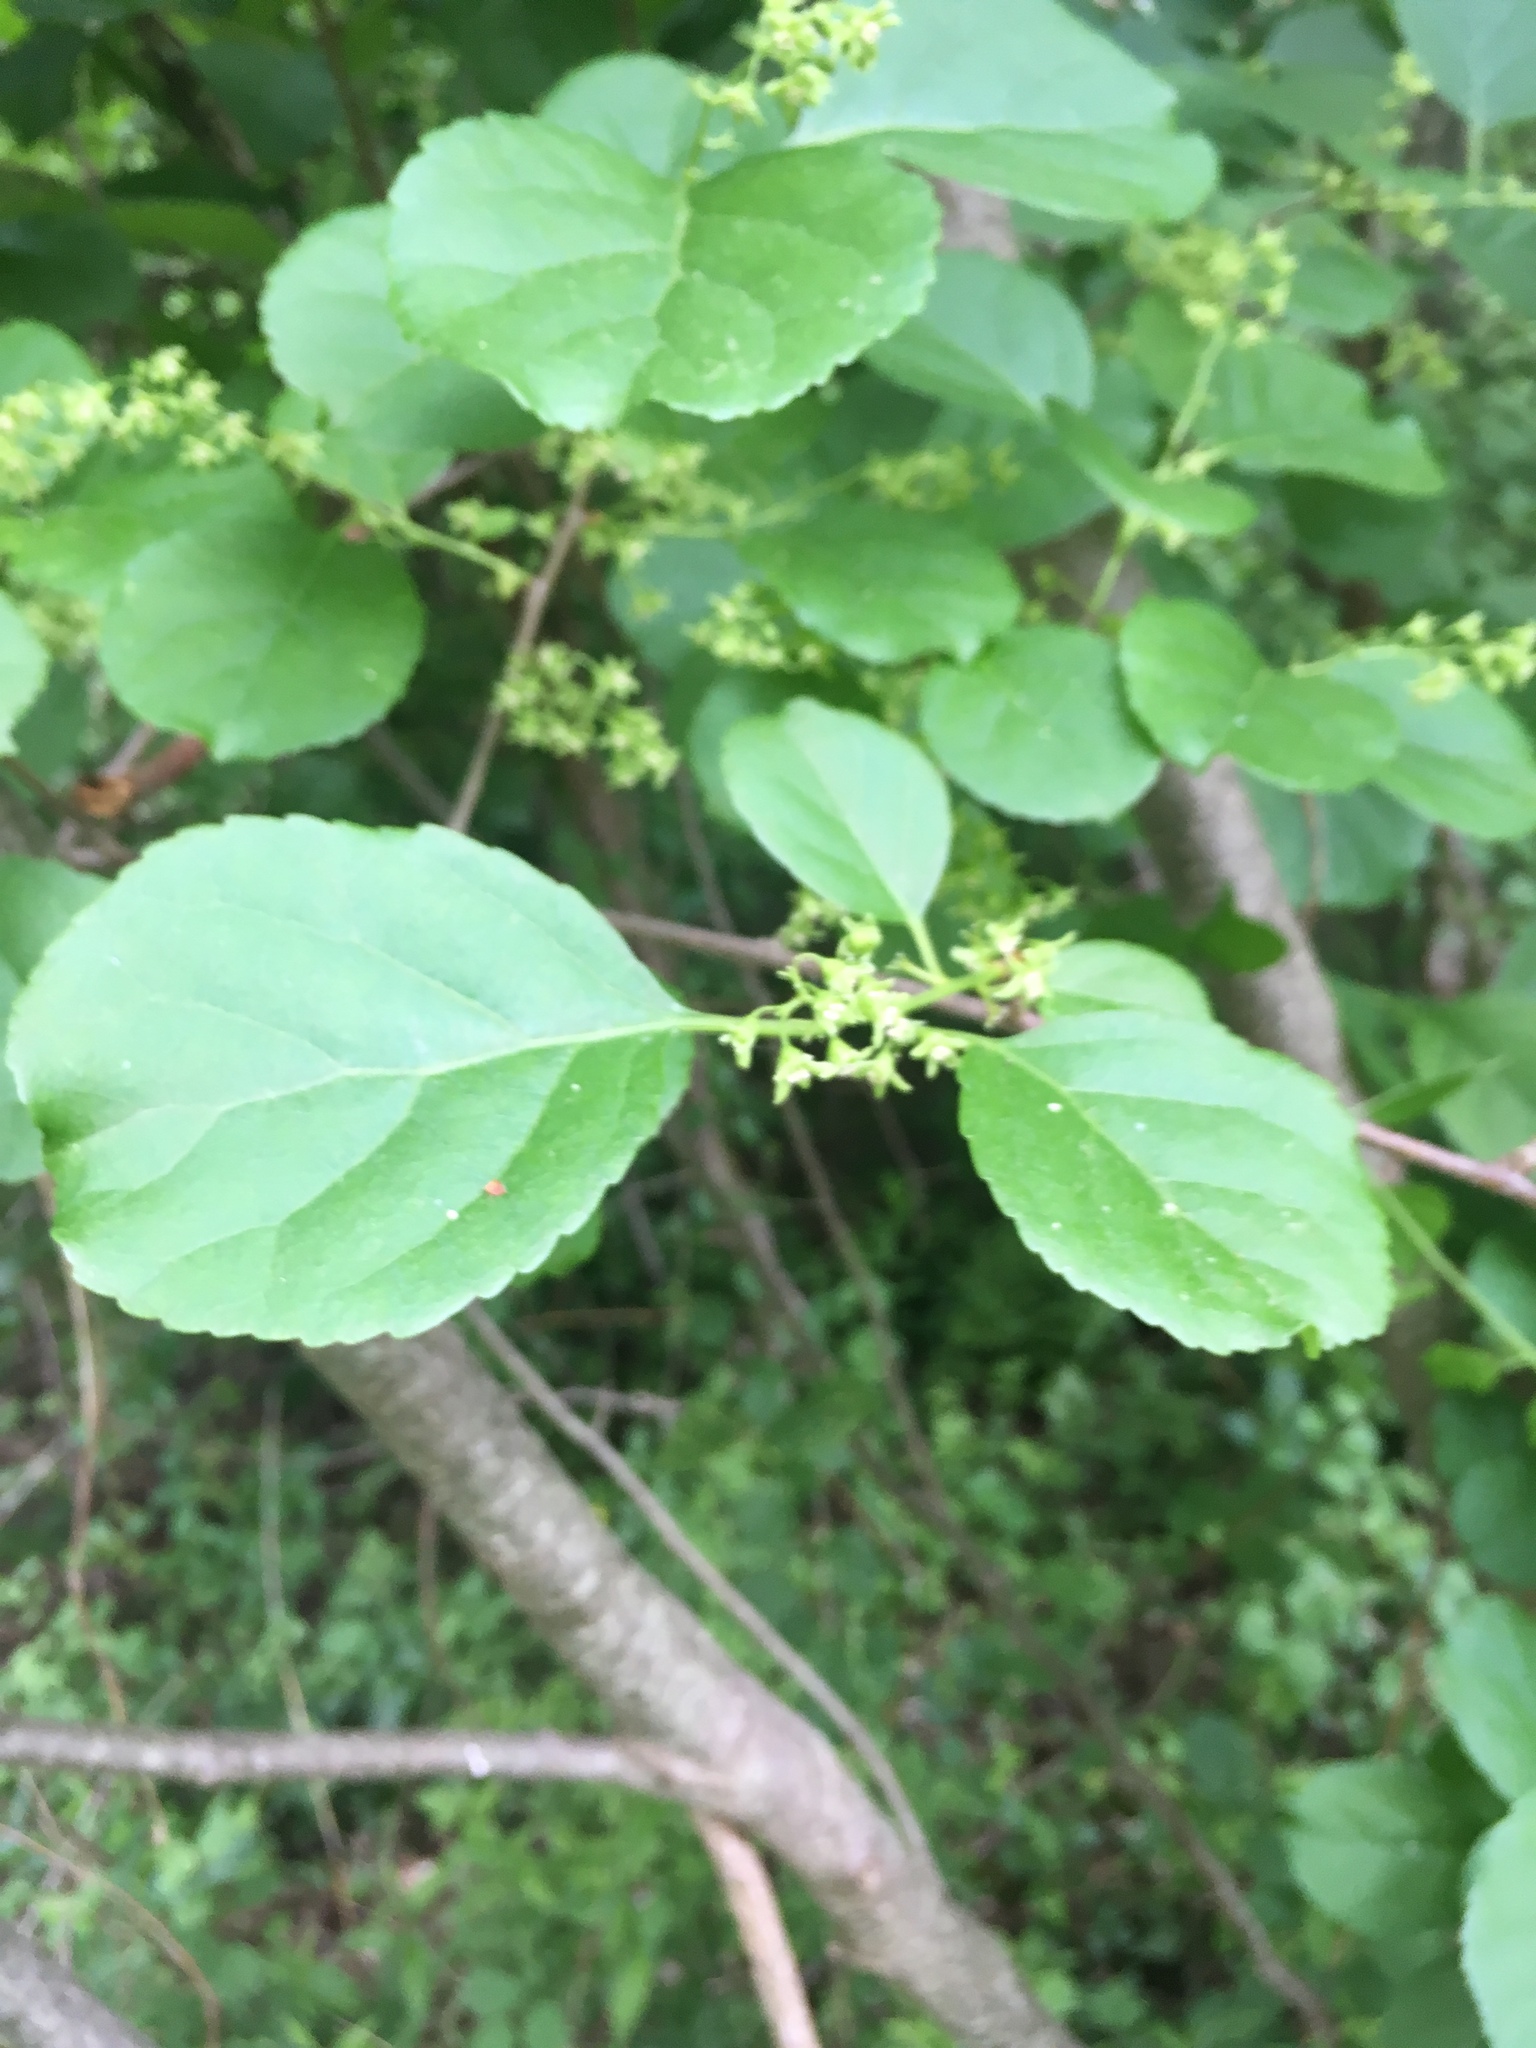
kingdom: Plantae
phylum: Tracheophyta
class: Magnoliopsida
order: Celastrales
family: Celastraceae
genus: Celastrus
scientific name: Celastrus orbiculatus
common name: Oriental bittersweet
